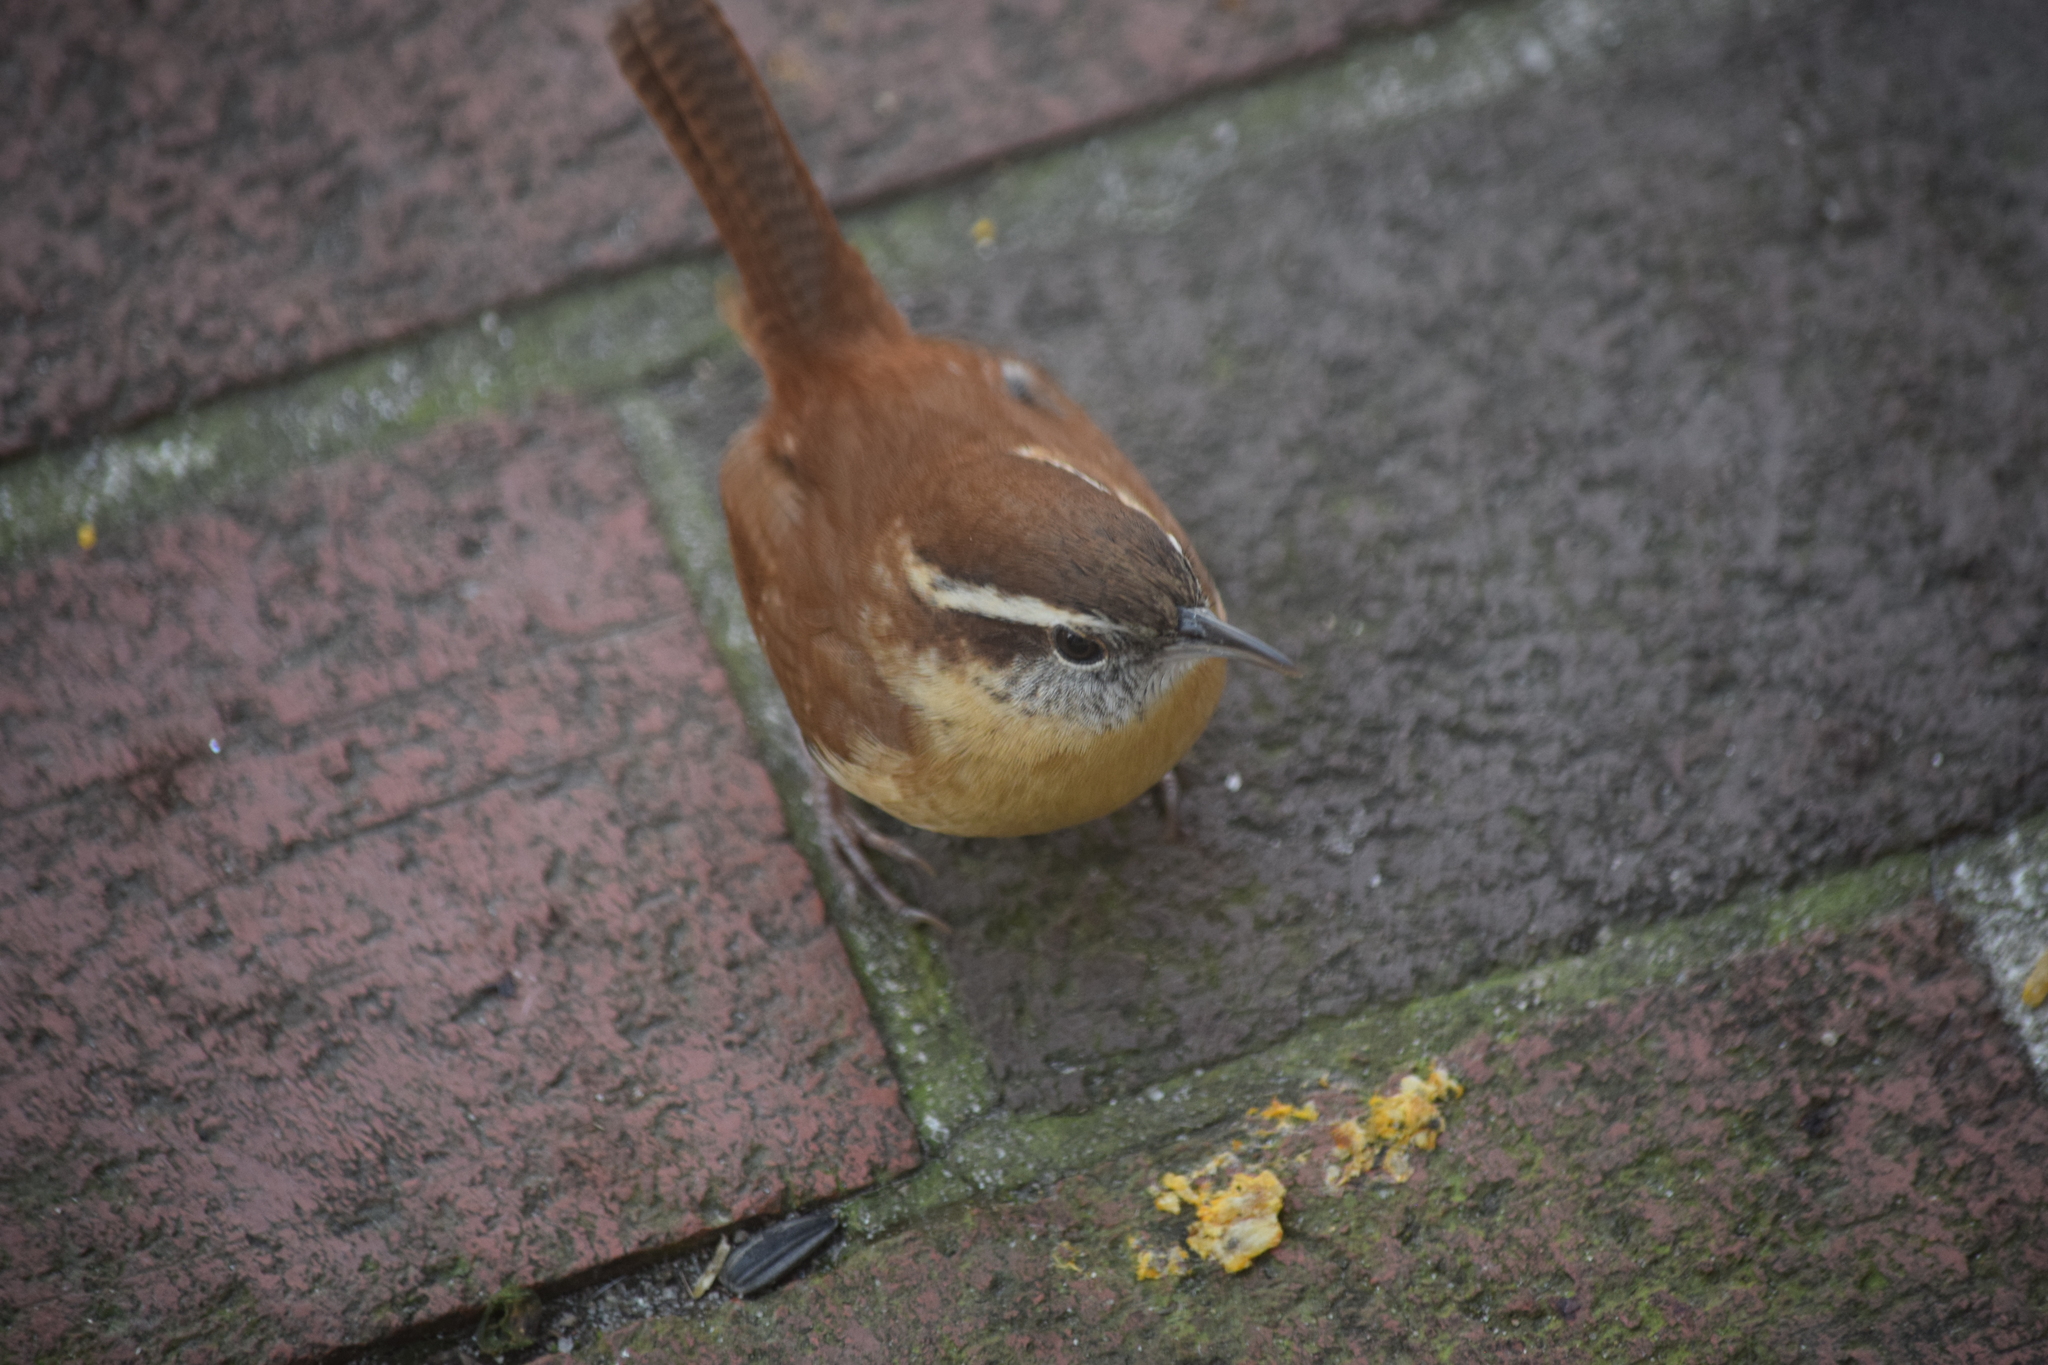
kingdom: Animalia
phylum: Chordata
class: Aves
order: Passeriformes
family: Troglodytidae
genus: Thryothorus
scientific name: Thryothorus ludovicianus
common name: Carolina wren
